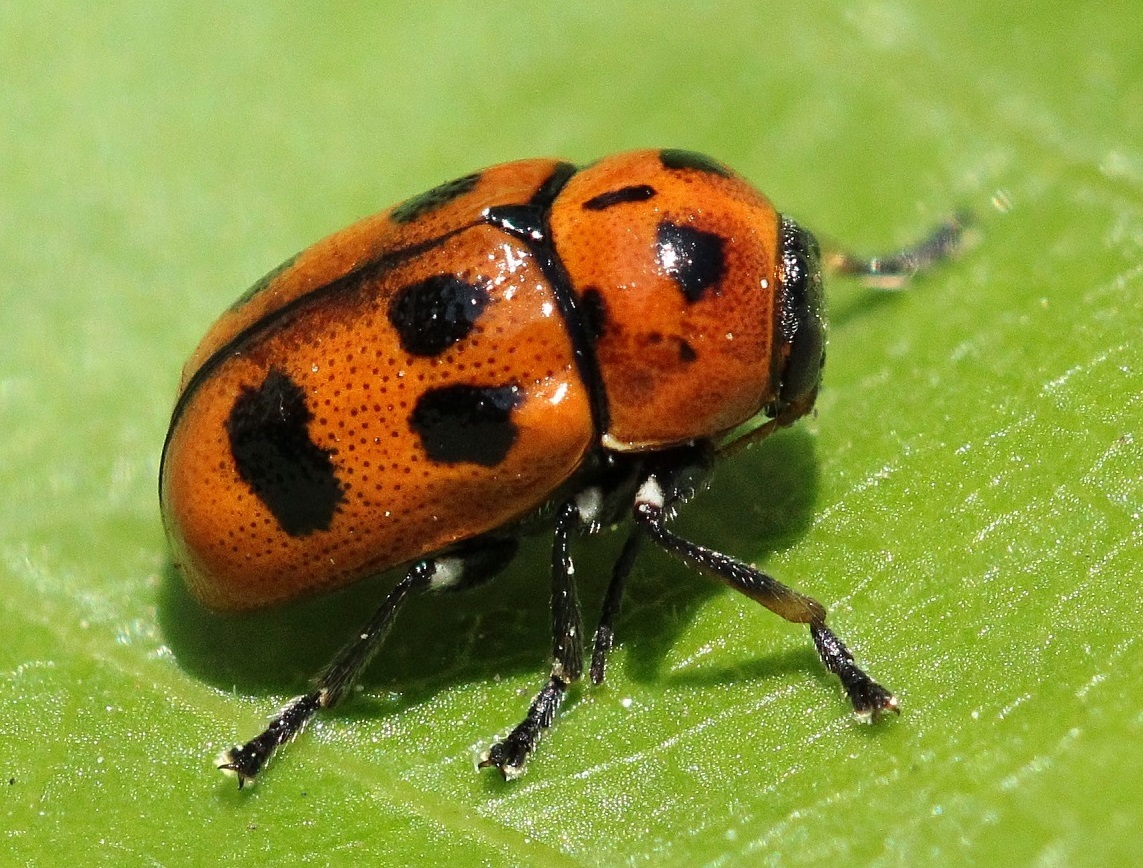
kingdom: Animalia
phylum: Arthropoda
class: Insecta
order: Coleoptera
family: Chrysomelidae
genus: Cryptocephalus
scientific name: Cryptocephalus laevicollis
